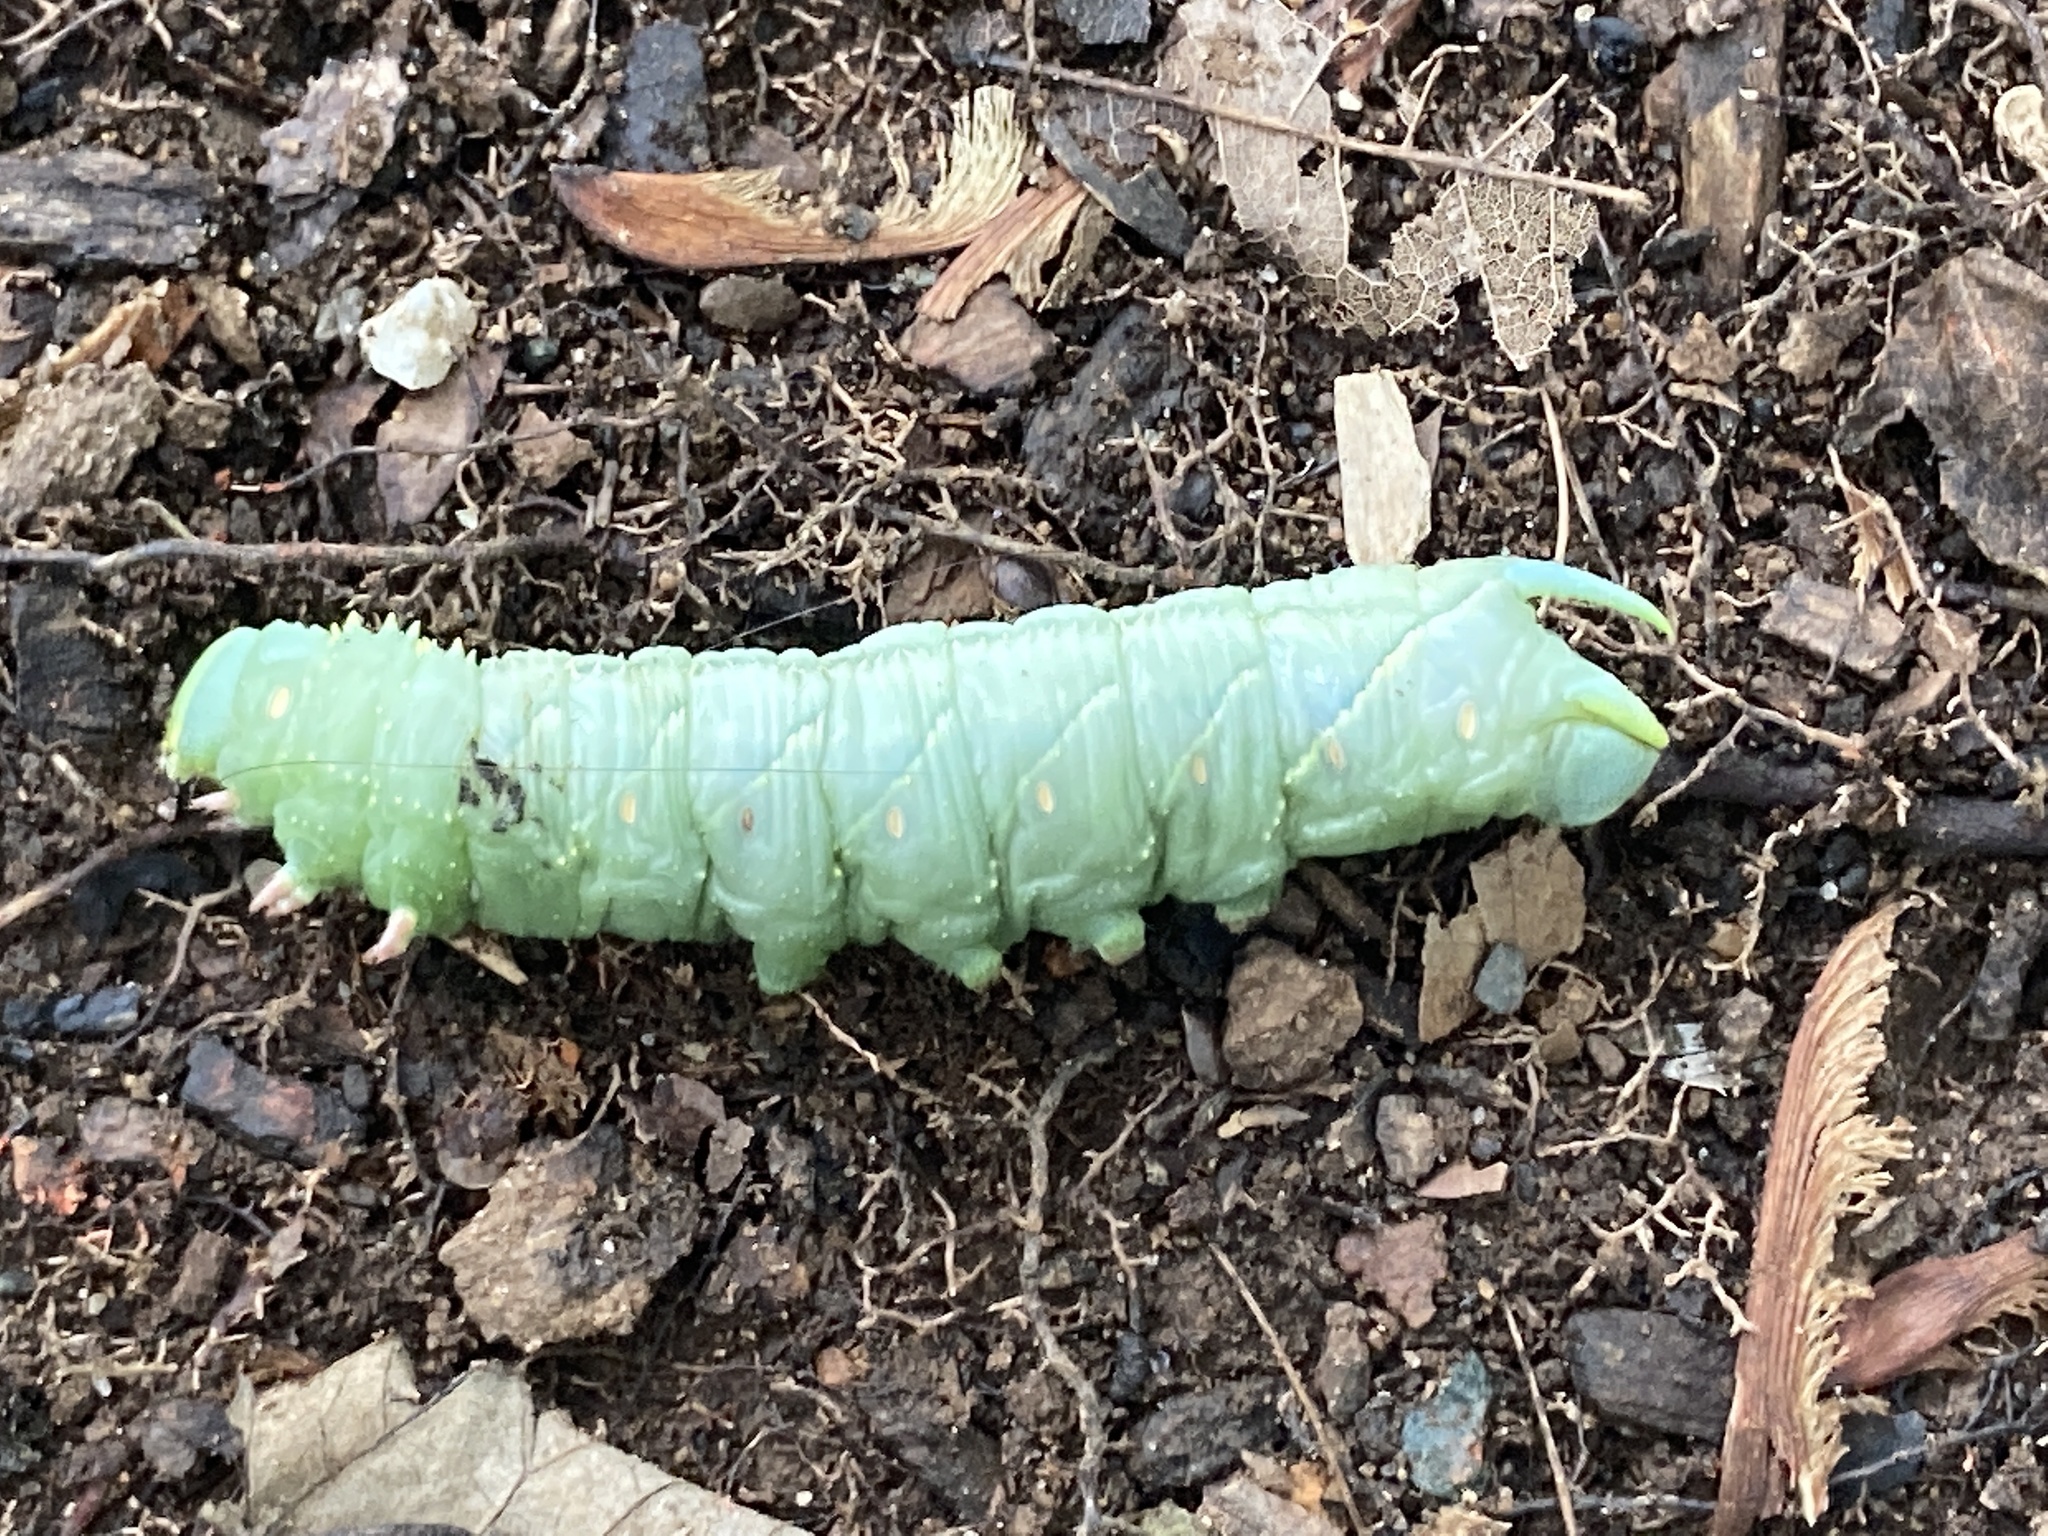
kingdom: Animalia
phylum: Arthropoda
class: Insecta
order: Lepidoptera
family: Sphingidae
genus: Sphinx
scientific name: Sphinx franckii
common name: Franck's sphinx
